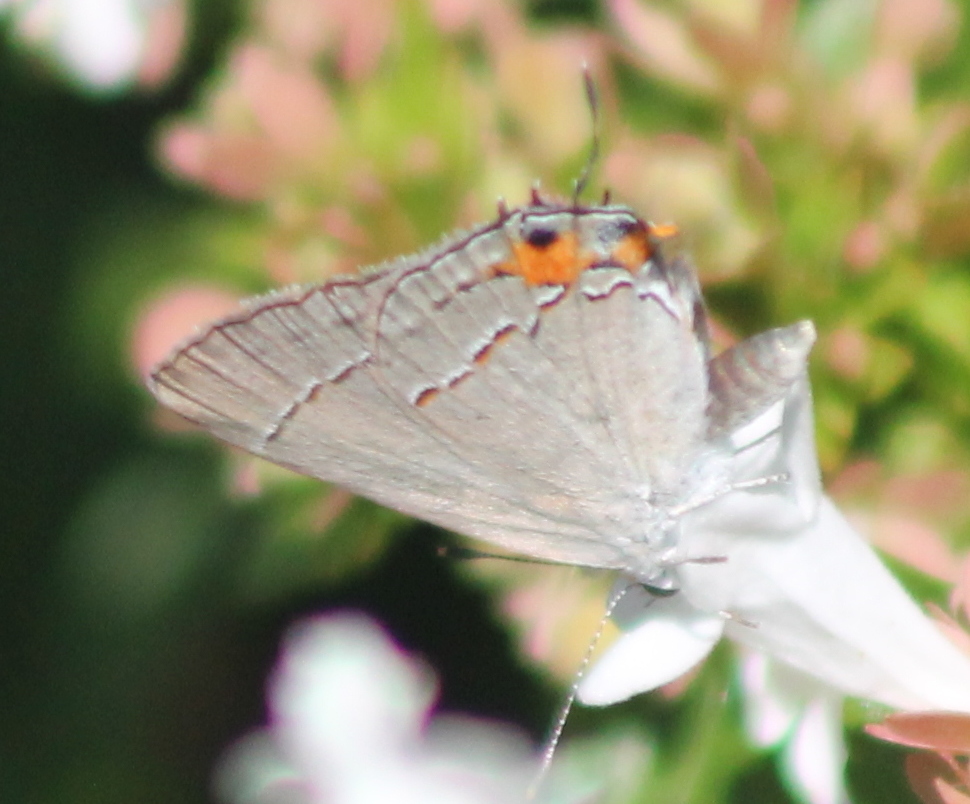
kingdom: Animalia
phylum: Arthropoda
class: Insecta
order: Lepidoptera
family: Lycaenidae
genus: Strymon
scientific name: Strymon melinus
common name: Gray hairstreak
